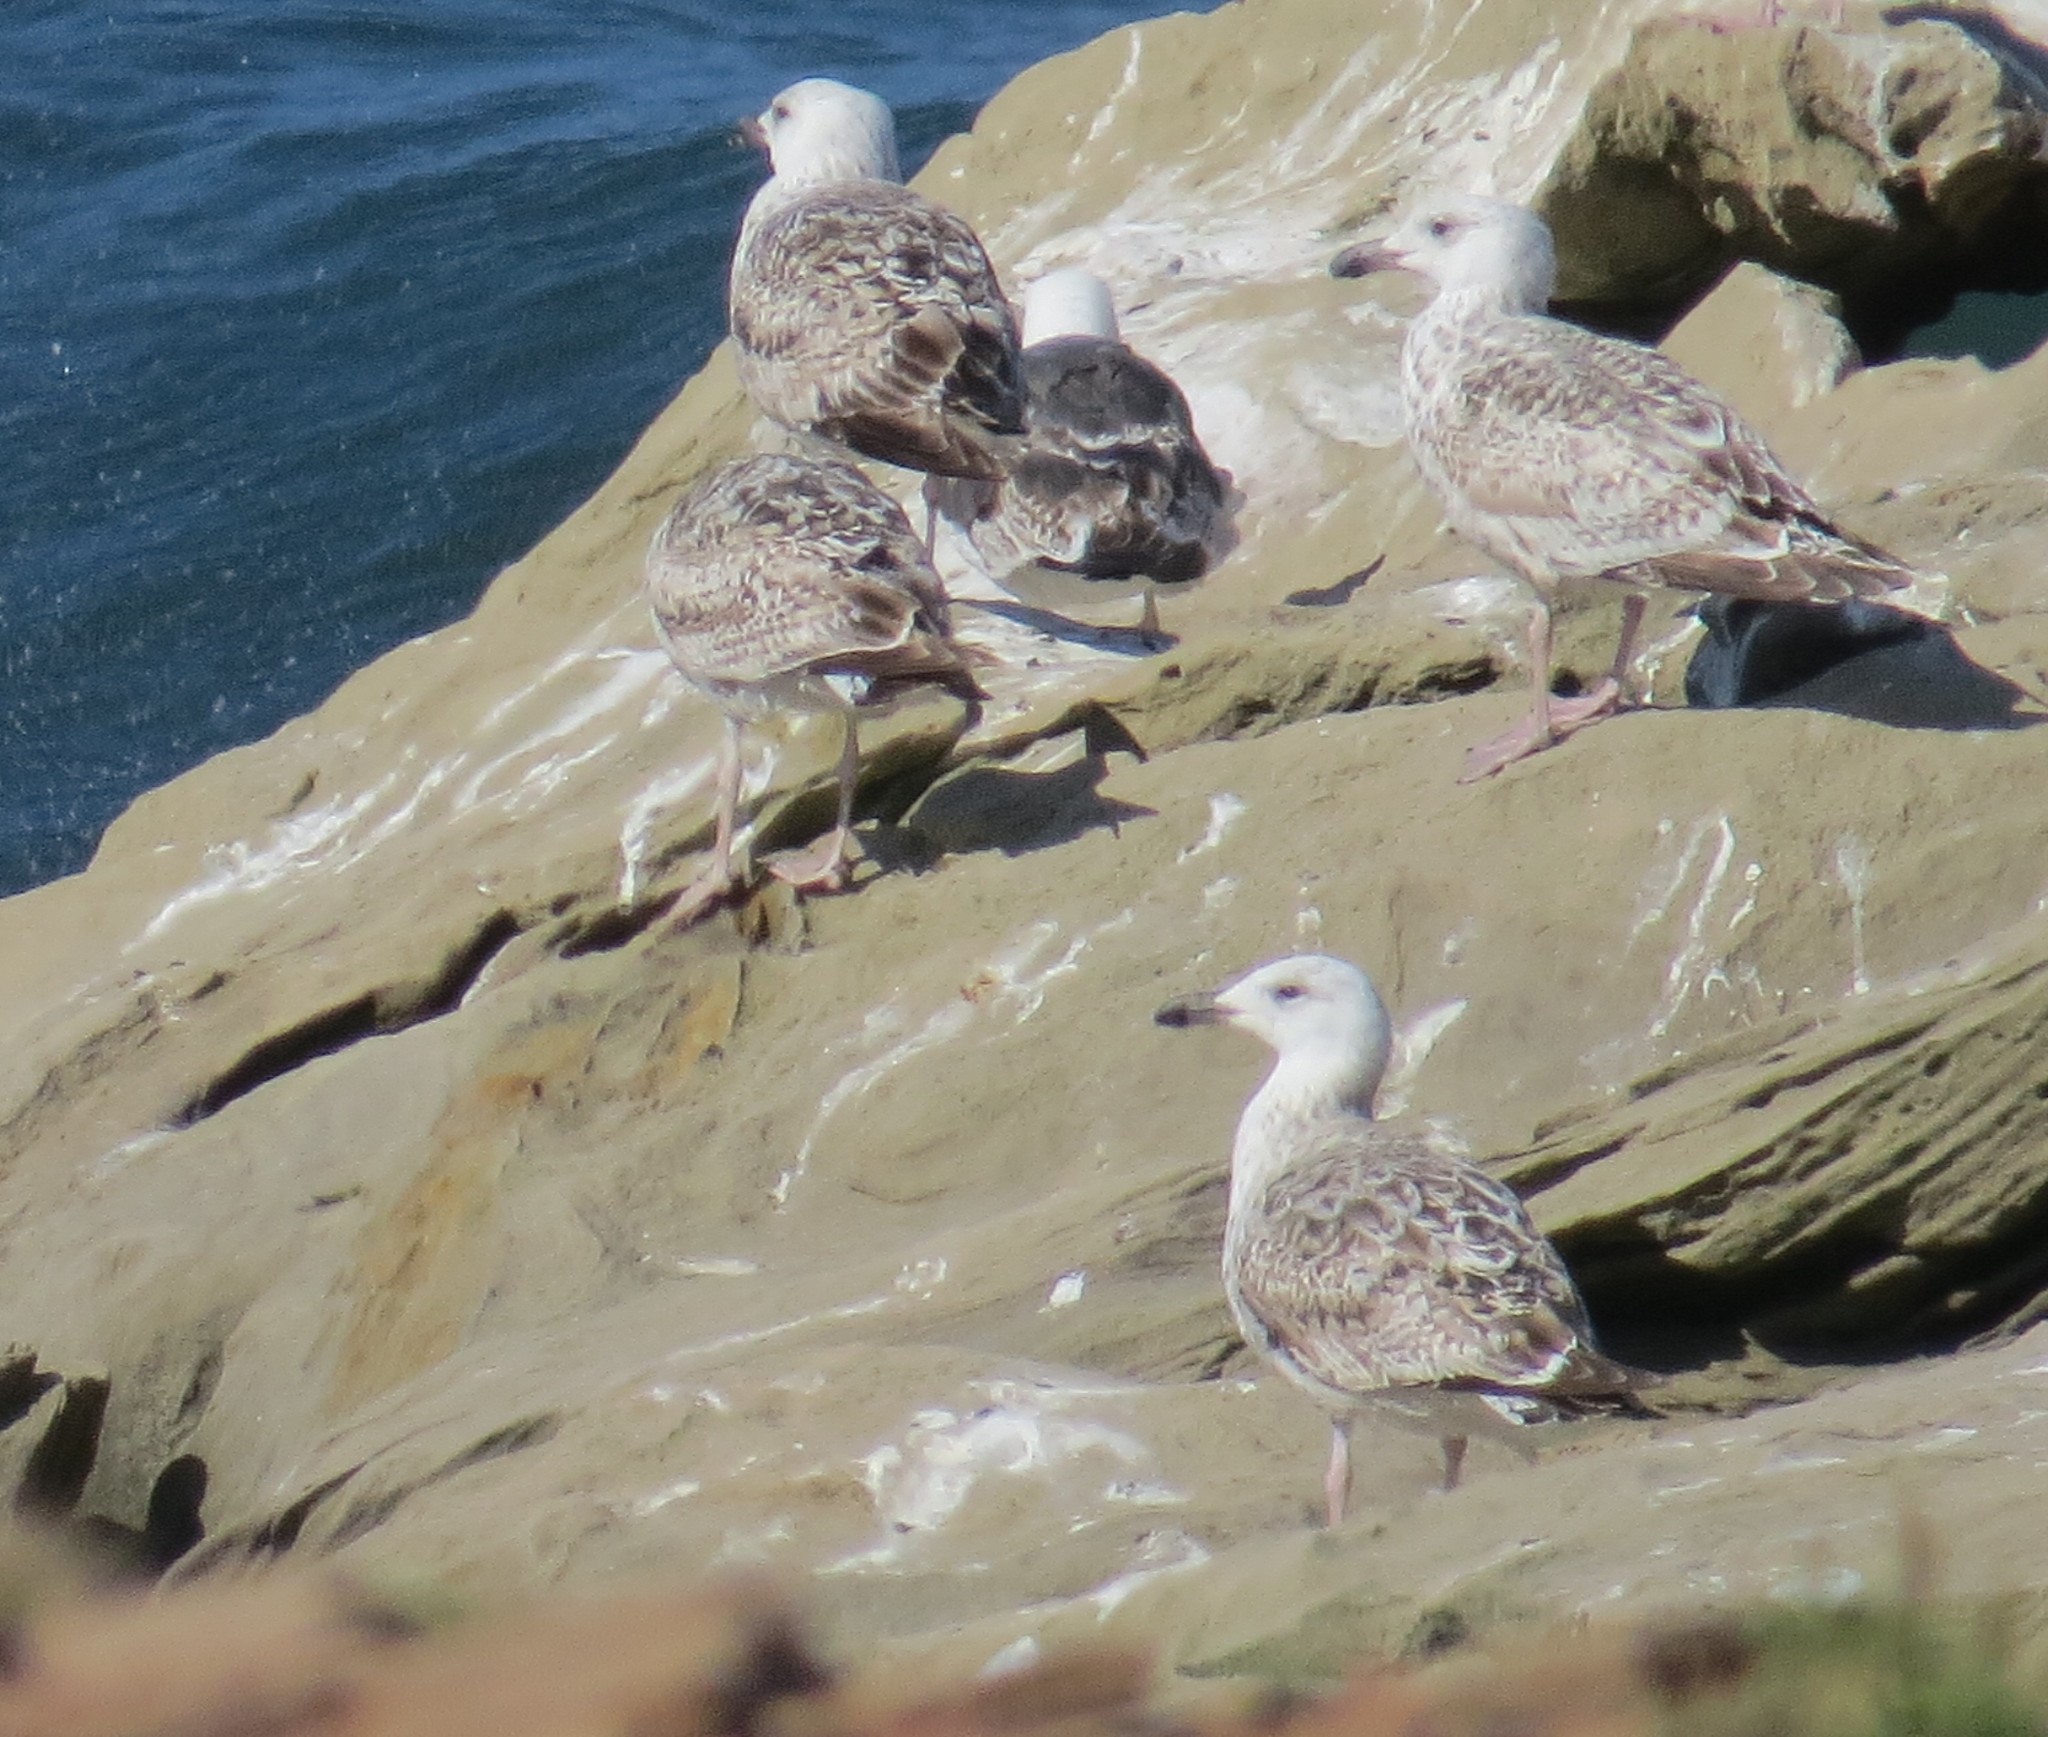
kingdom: Animalia
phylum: Chordata
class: Aves
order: Charadriiformes
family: Laridae
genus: Larus
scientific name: Larus argentatus
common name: Herring gull
